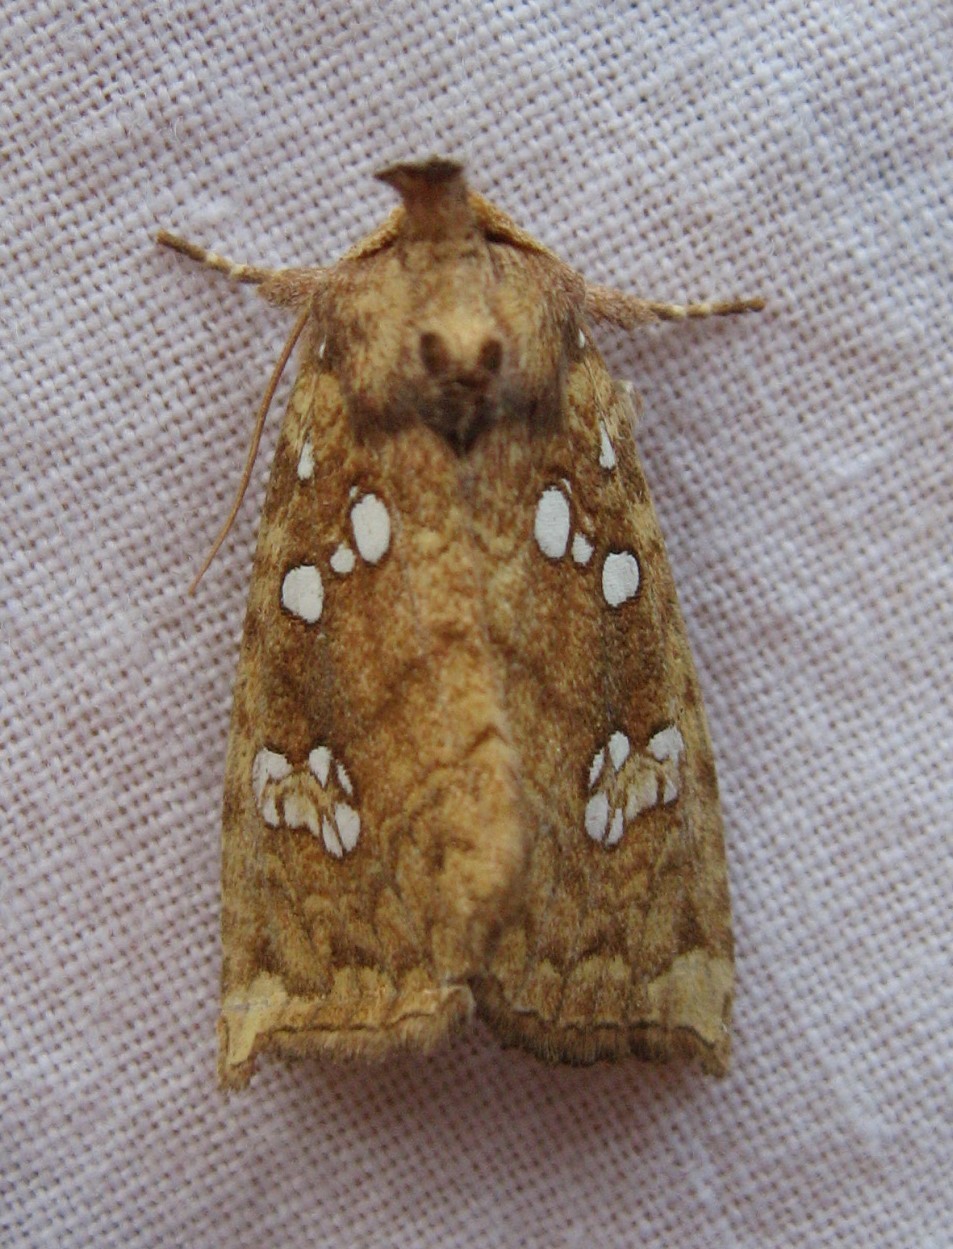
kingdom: Animalia
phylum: Arthropoda
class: Insecta
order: Lepidoptera
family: Noctuidae
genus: Papaipema
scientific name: Papaipema furcata
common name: Ash tip borer moth
